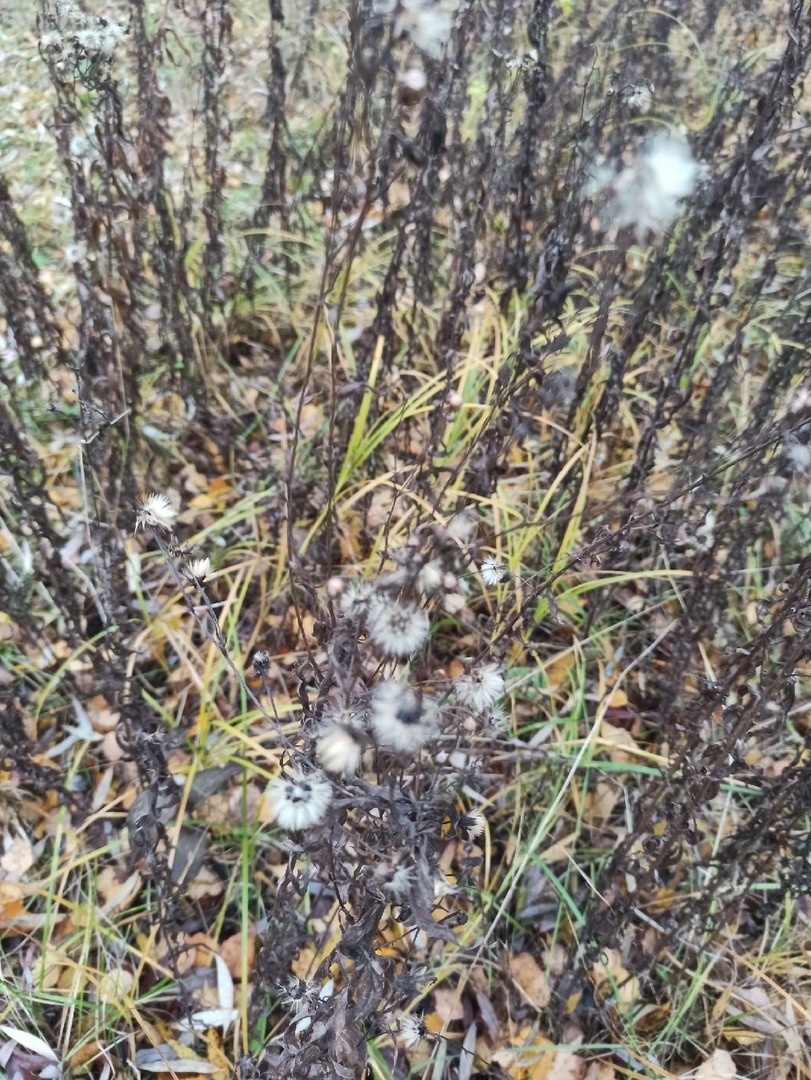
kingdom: Plantae
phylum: Tracheophyta
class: Magnoliopsida
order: Asterales
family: Asteraceae
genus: Solidago
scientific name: Solidago virgaurea
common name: Goldenrod
